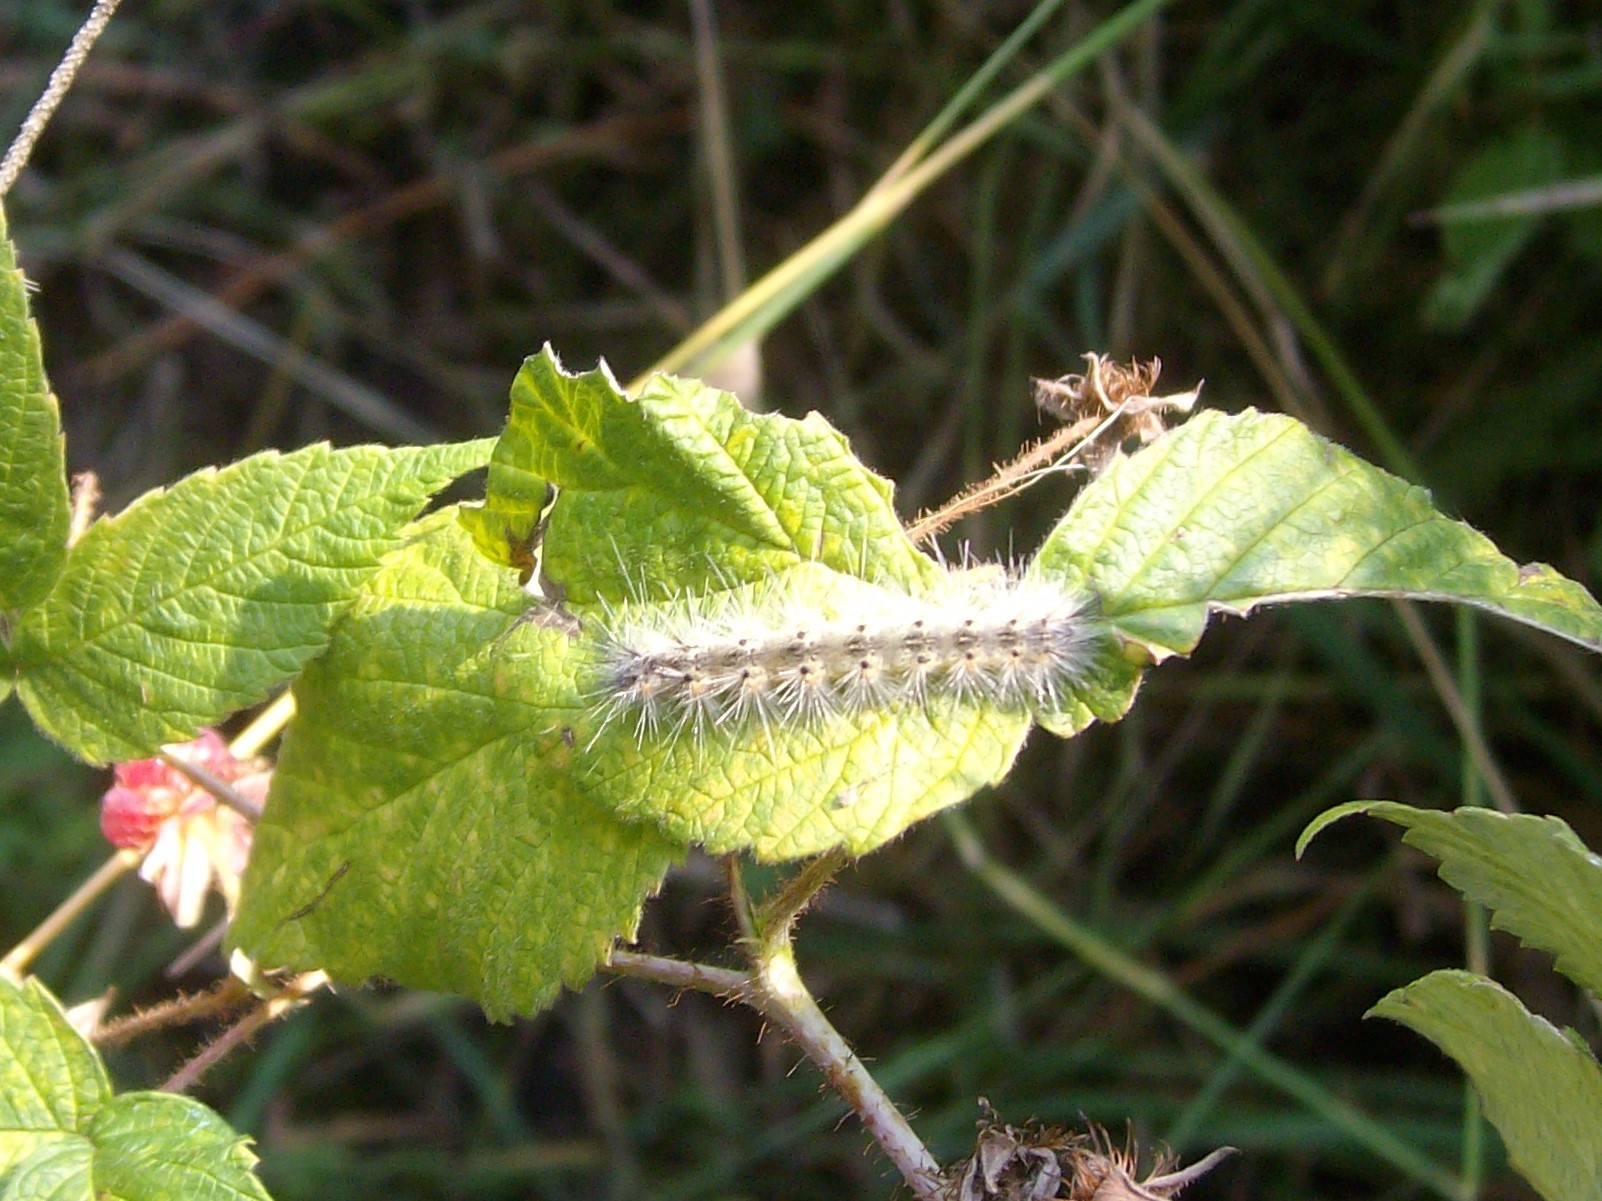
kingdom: Animalia
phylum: Arthropoda
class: Insecta
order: Lepidoptera
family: Erebidae
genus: Hyphantria
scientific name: Hyphantria cunea
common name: American white moth
